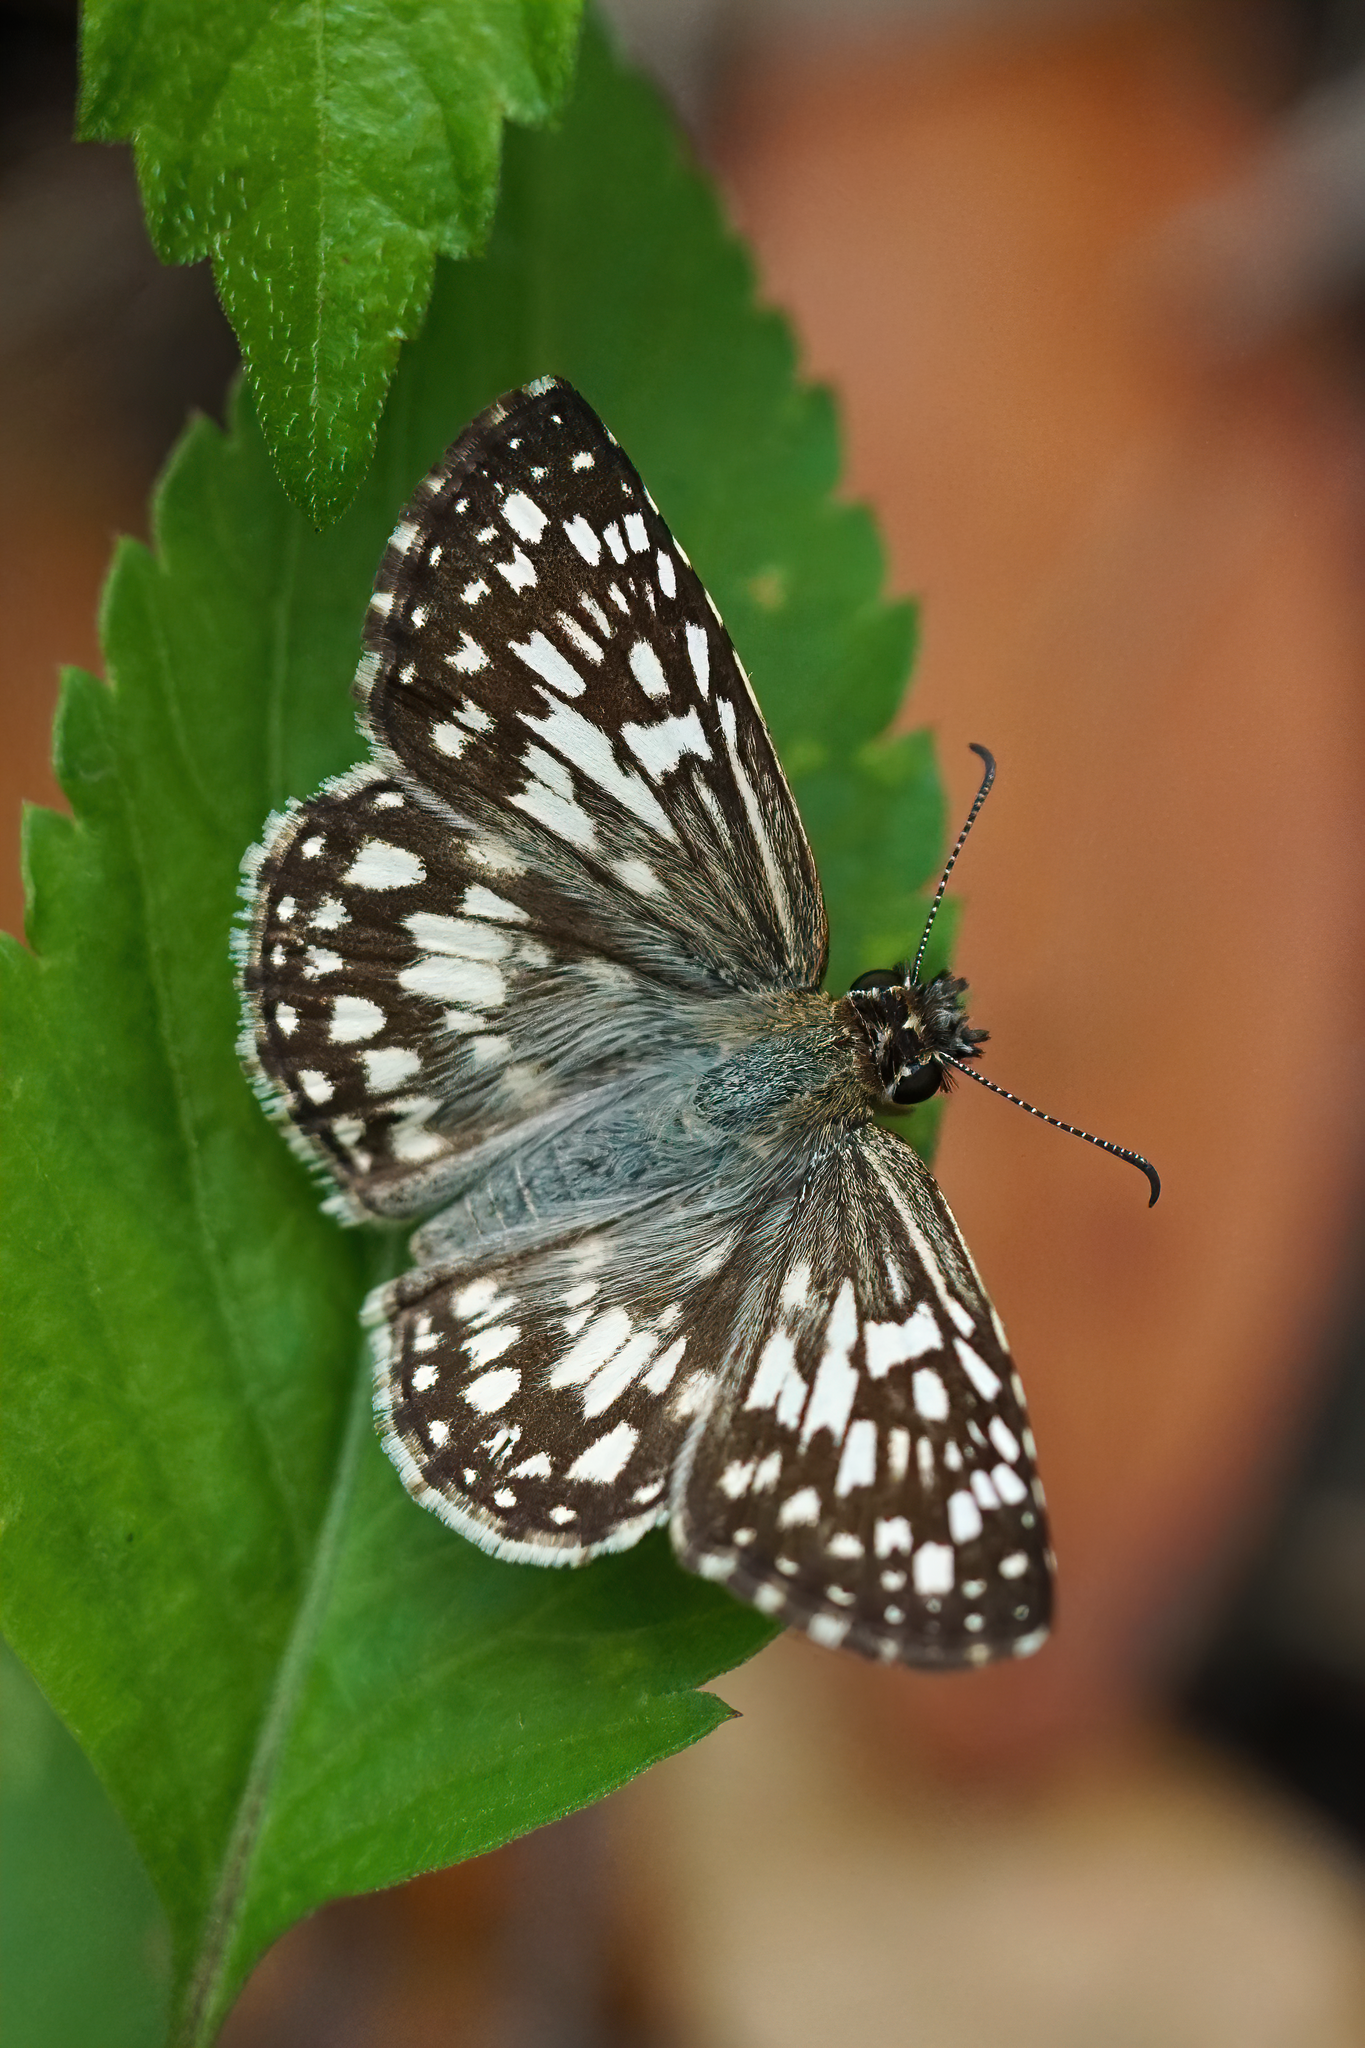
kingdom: Animalia
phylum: Arthropoda
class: Insecta
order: Lepidoptera
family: Hesperiidae
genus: Pyrgus
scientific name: Pyrgus oileus
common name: Tropical checkered-skipper
